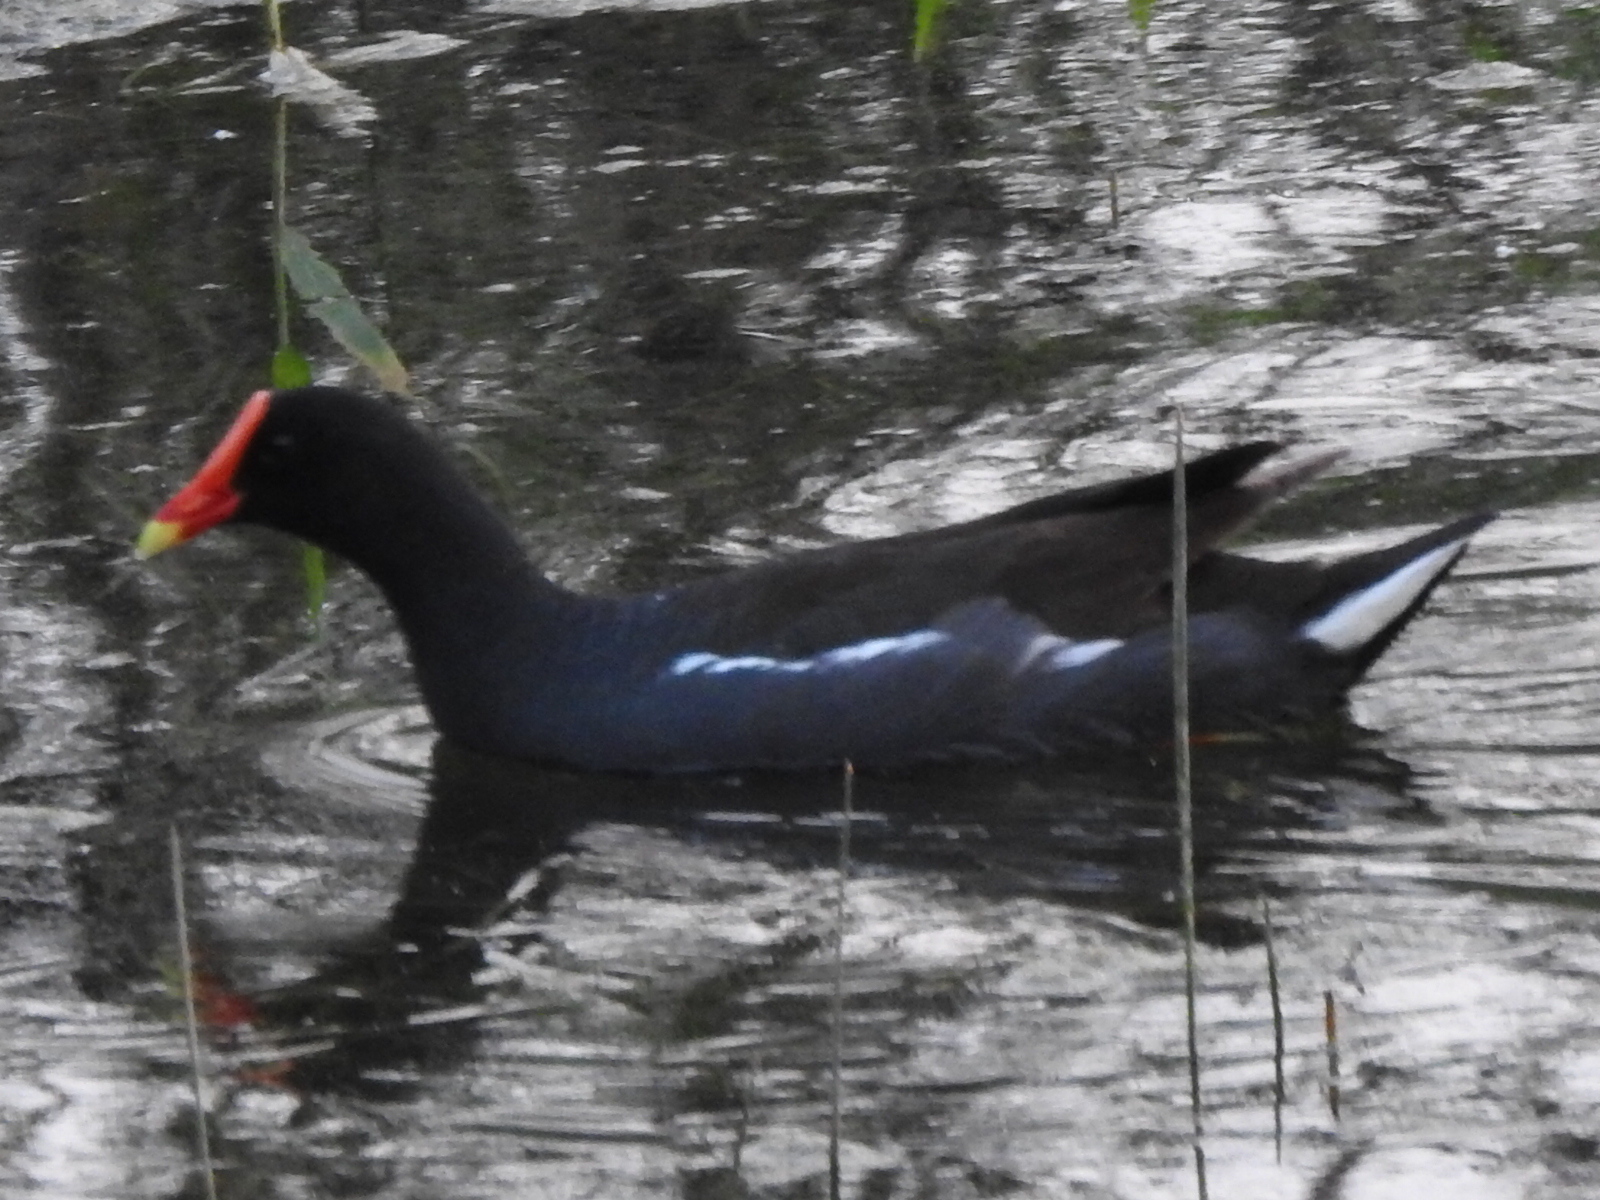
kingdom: Animalia
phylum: Chordata
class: Aves
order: Gruiformes
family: Rallidae
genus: Gallinula
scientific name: Gallinula chloropus
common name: Common moorhen
